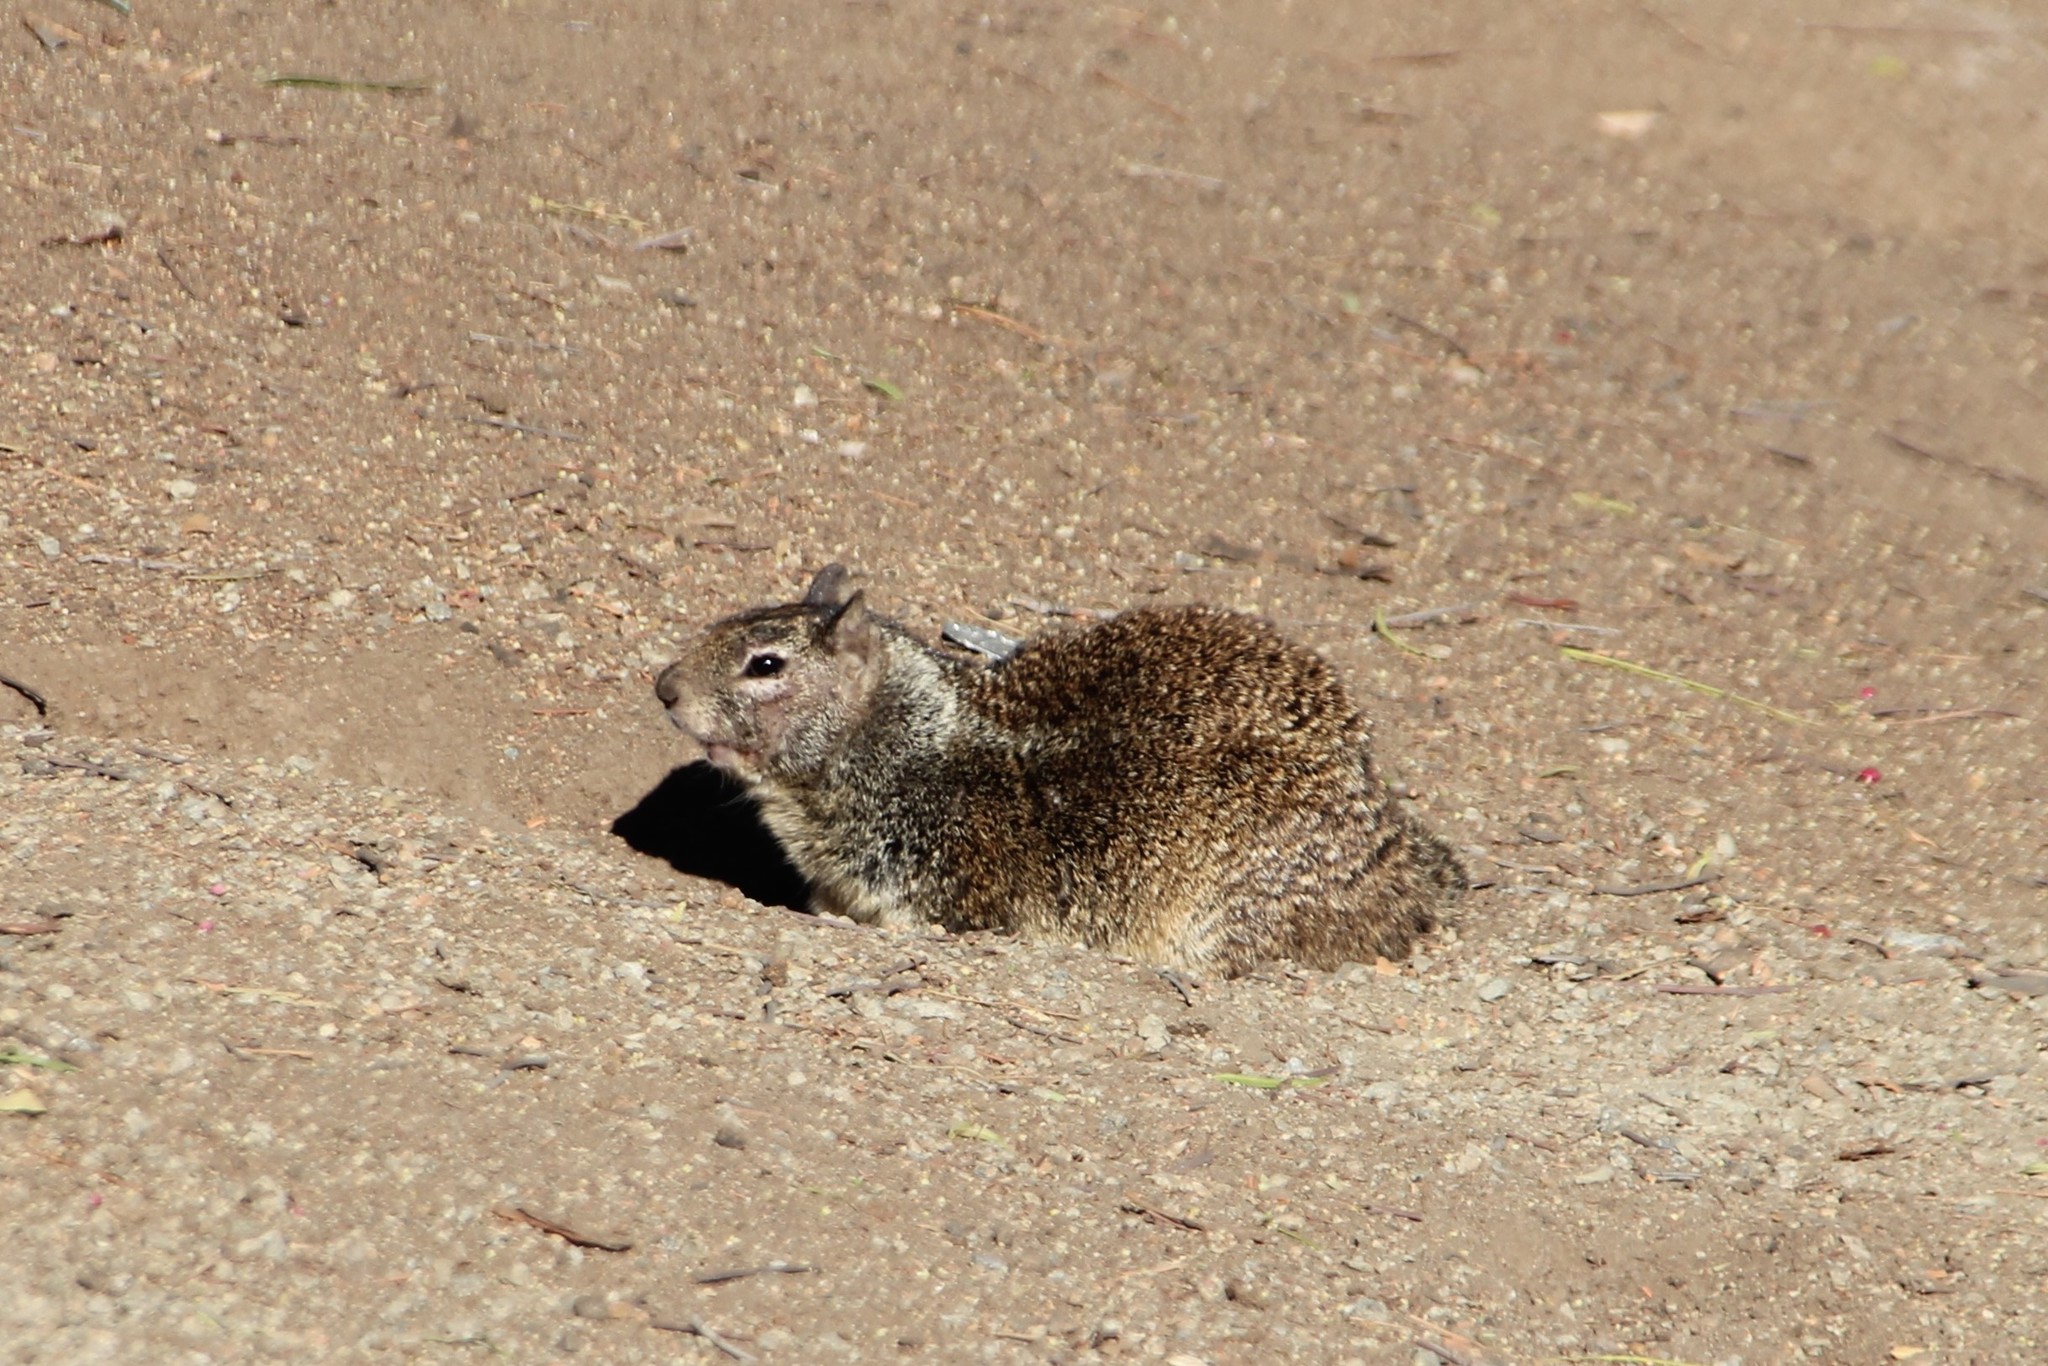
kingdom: Animalia
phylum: Chordata
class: Mammalia
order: Rodentia
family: Sciuridae
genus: Otospermophilus
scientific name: Otospermophilus beecheyi
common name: California ground squirrel
